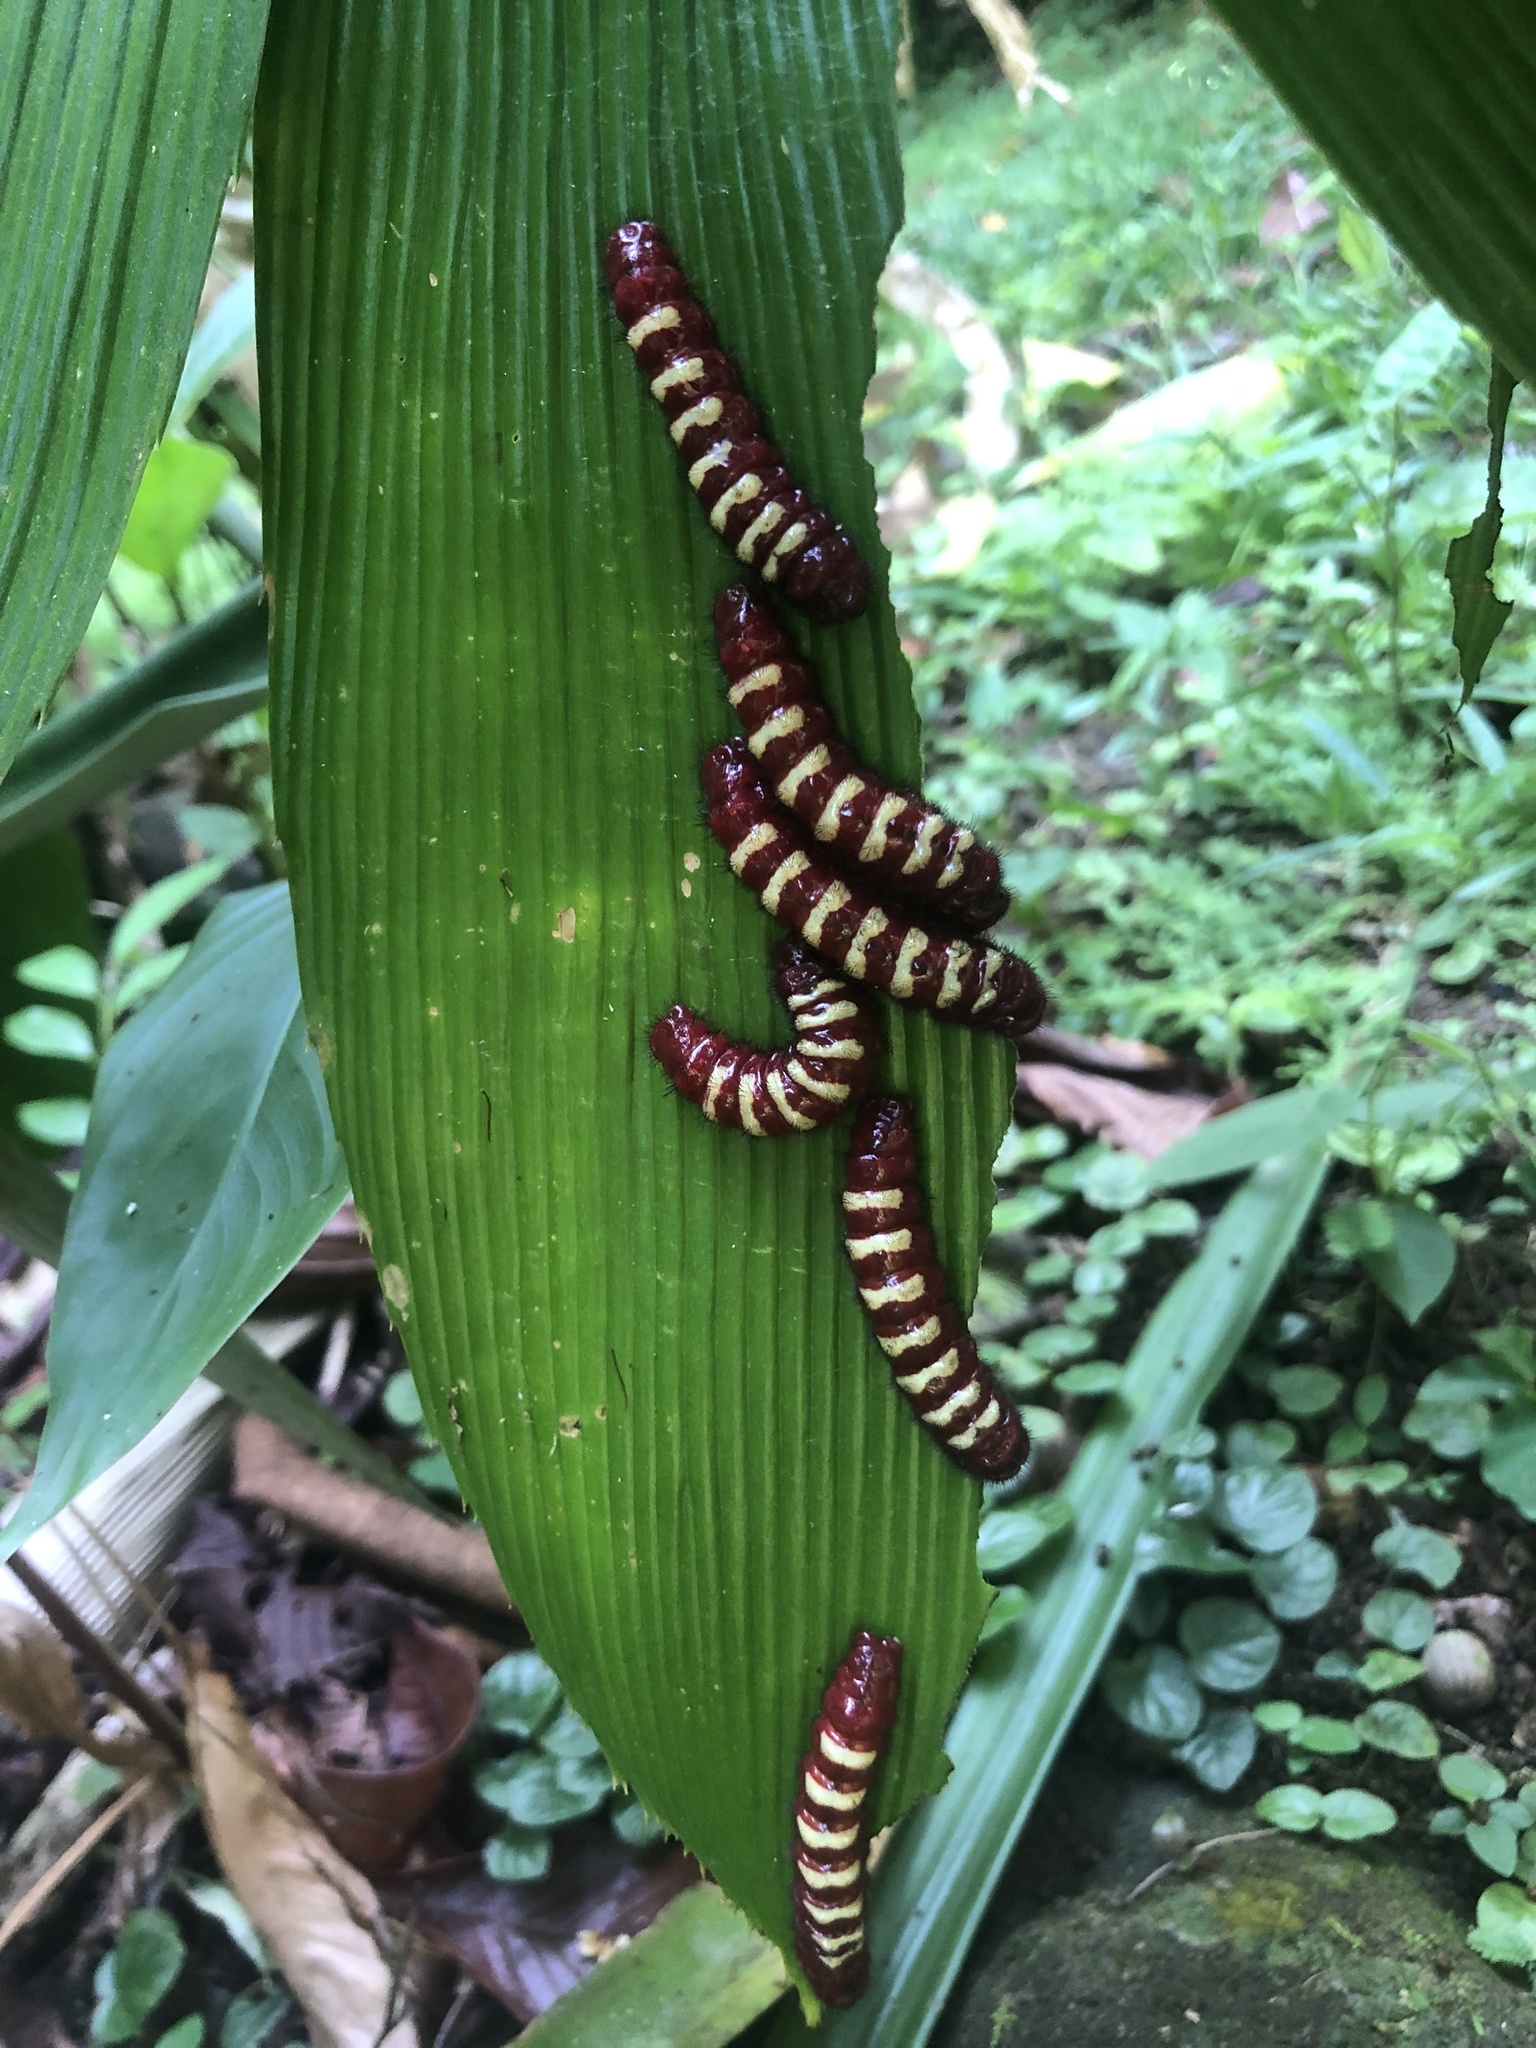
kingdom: Animalia
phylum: Arthropoda
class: Insecta
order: Lepidoptera
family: Lycaenidae
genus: Eumaeus
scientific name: Eumaeus godartii
